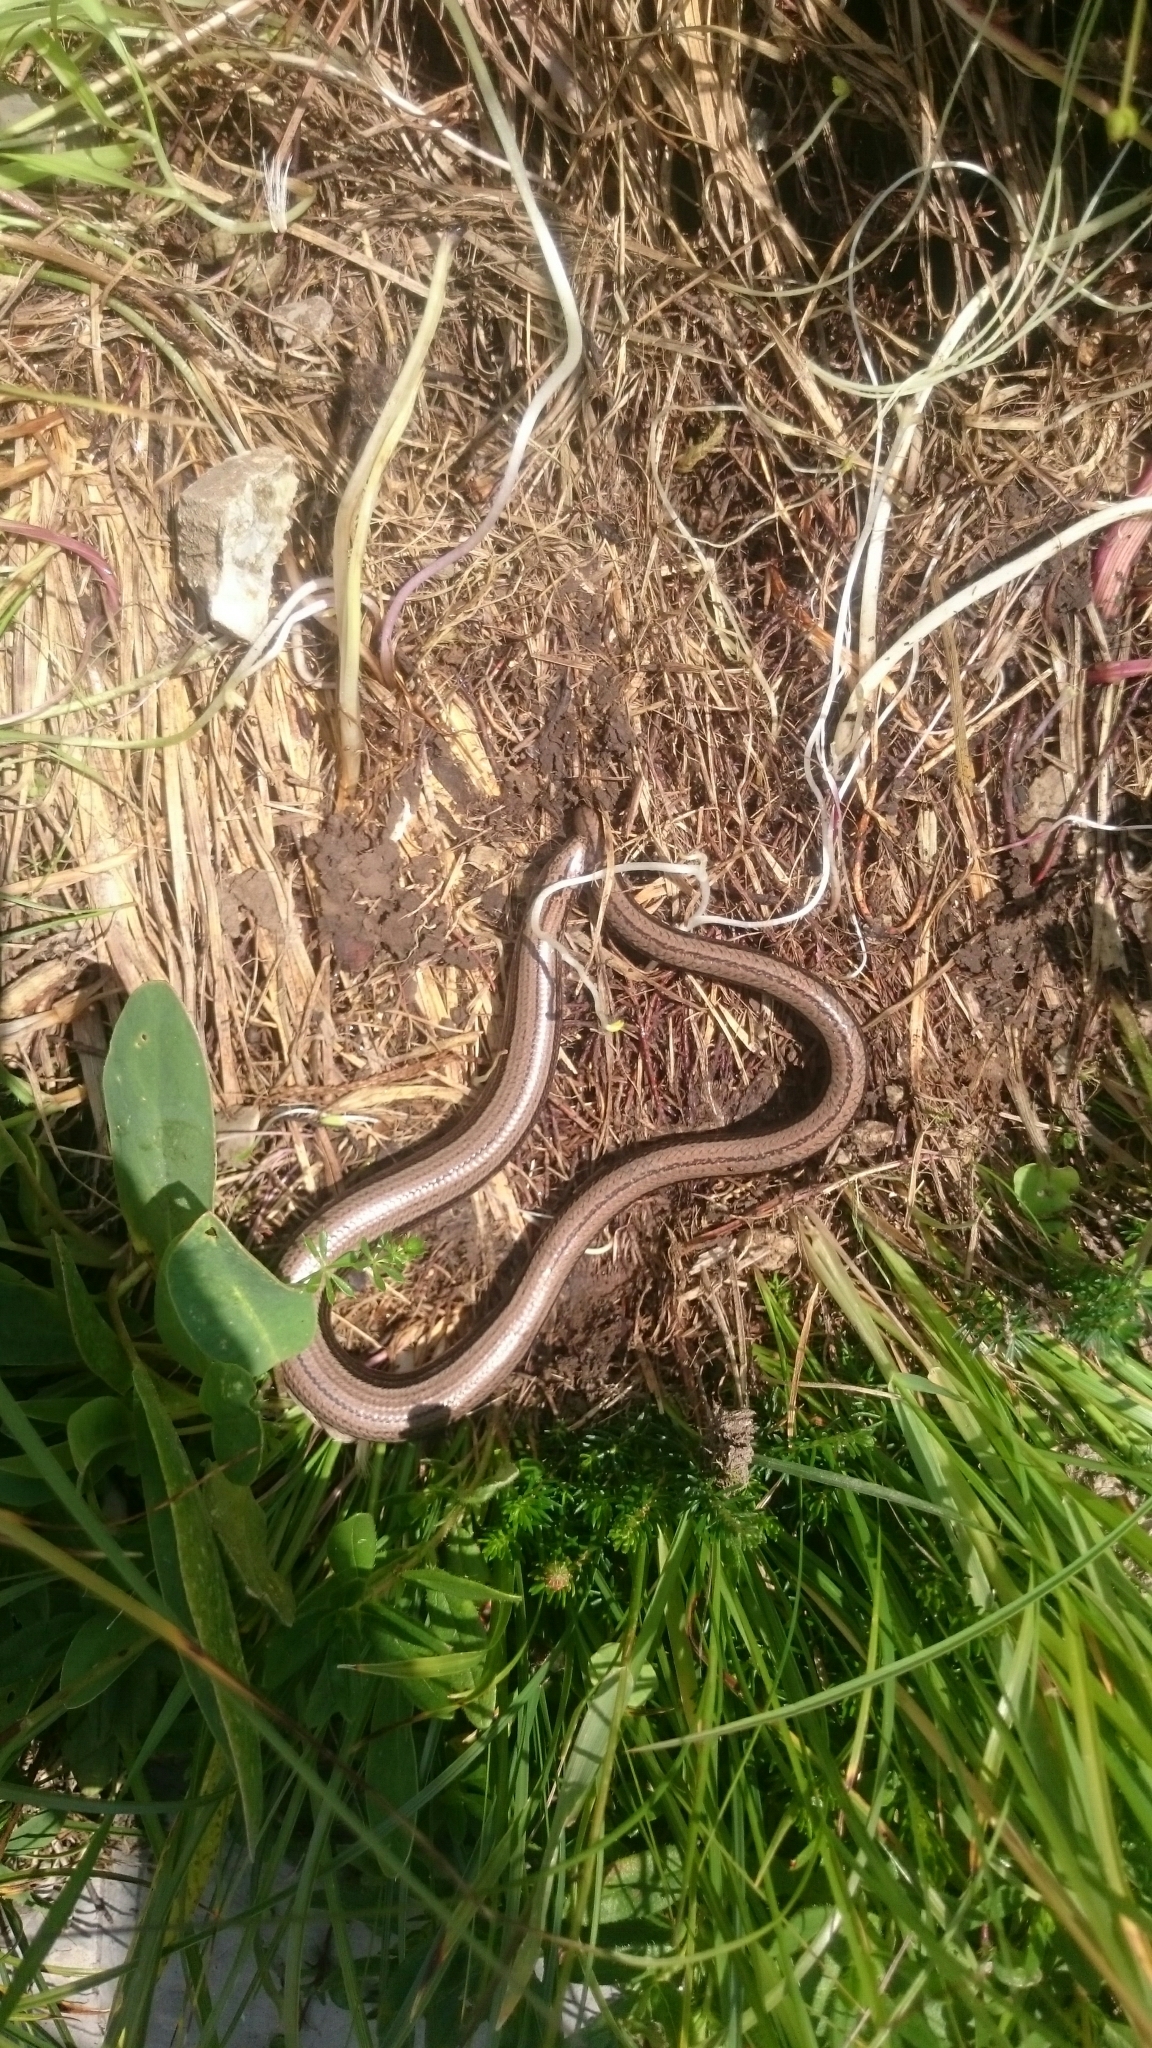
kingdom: Animalia
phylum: Chordata
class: Squamata
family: Anguidae
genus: Anguis
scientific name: Anguis fragilis
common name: Slow worm
